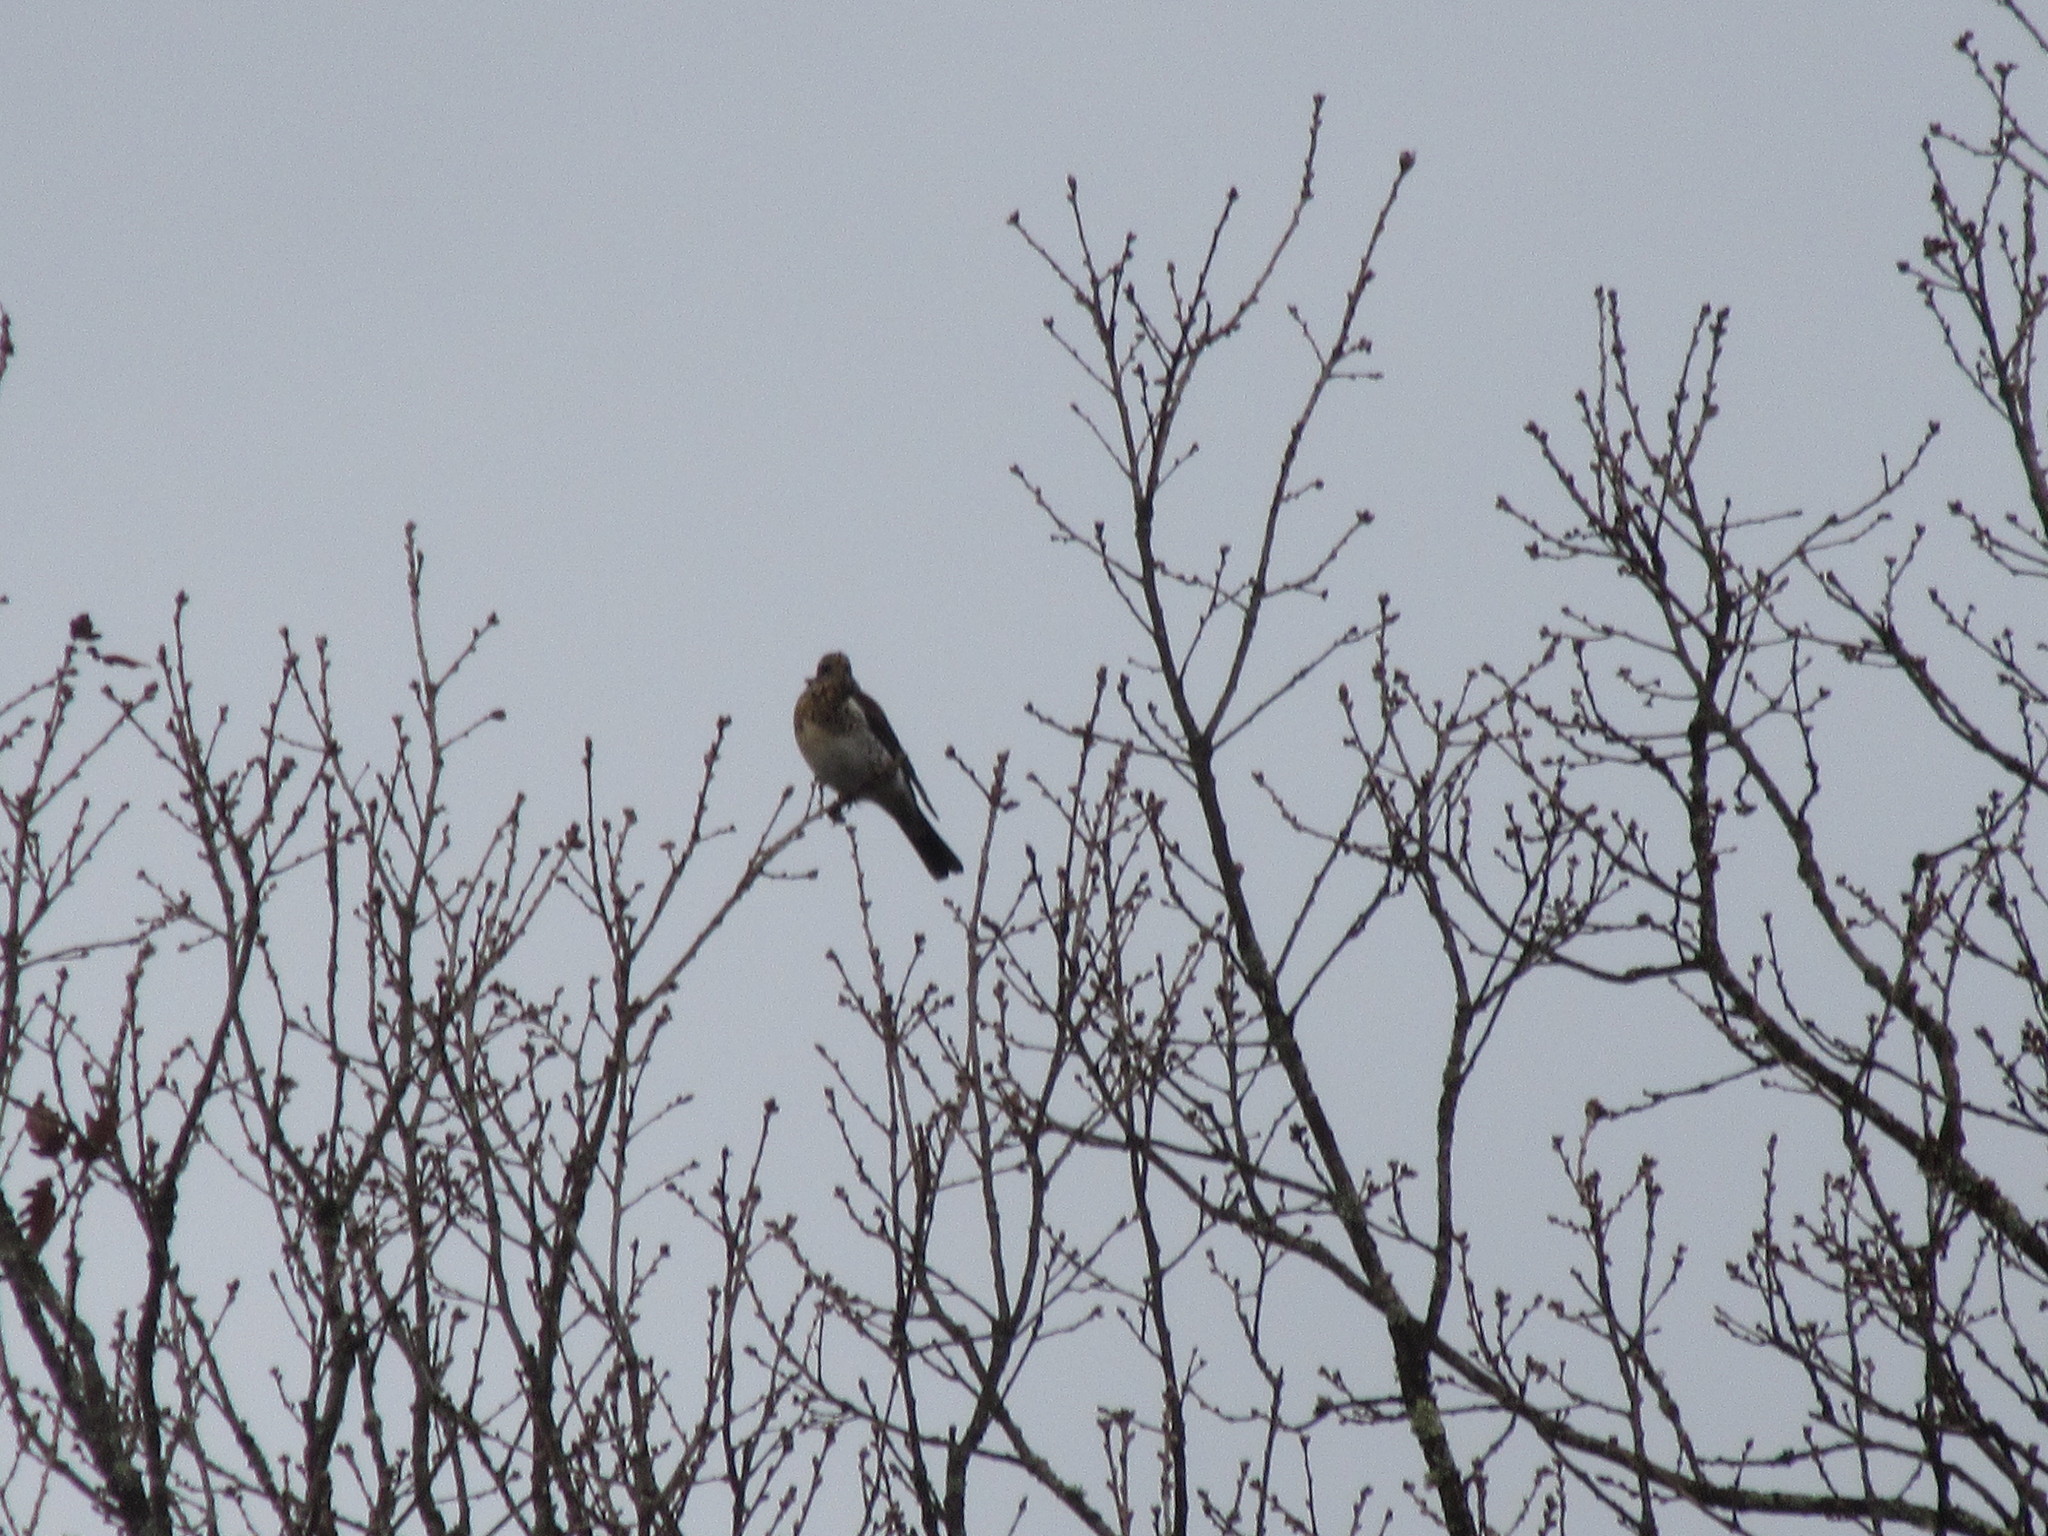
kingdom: Animalia
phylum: Chordata
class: Aves
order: Passeriformes
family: Turdidae
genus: Turdus
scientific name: Turdus pilaris
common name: Fieldfare
